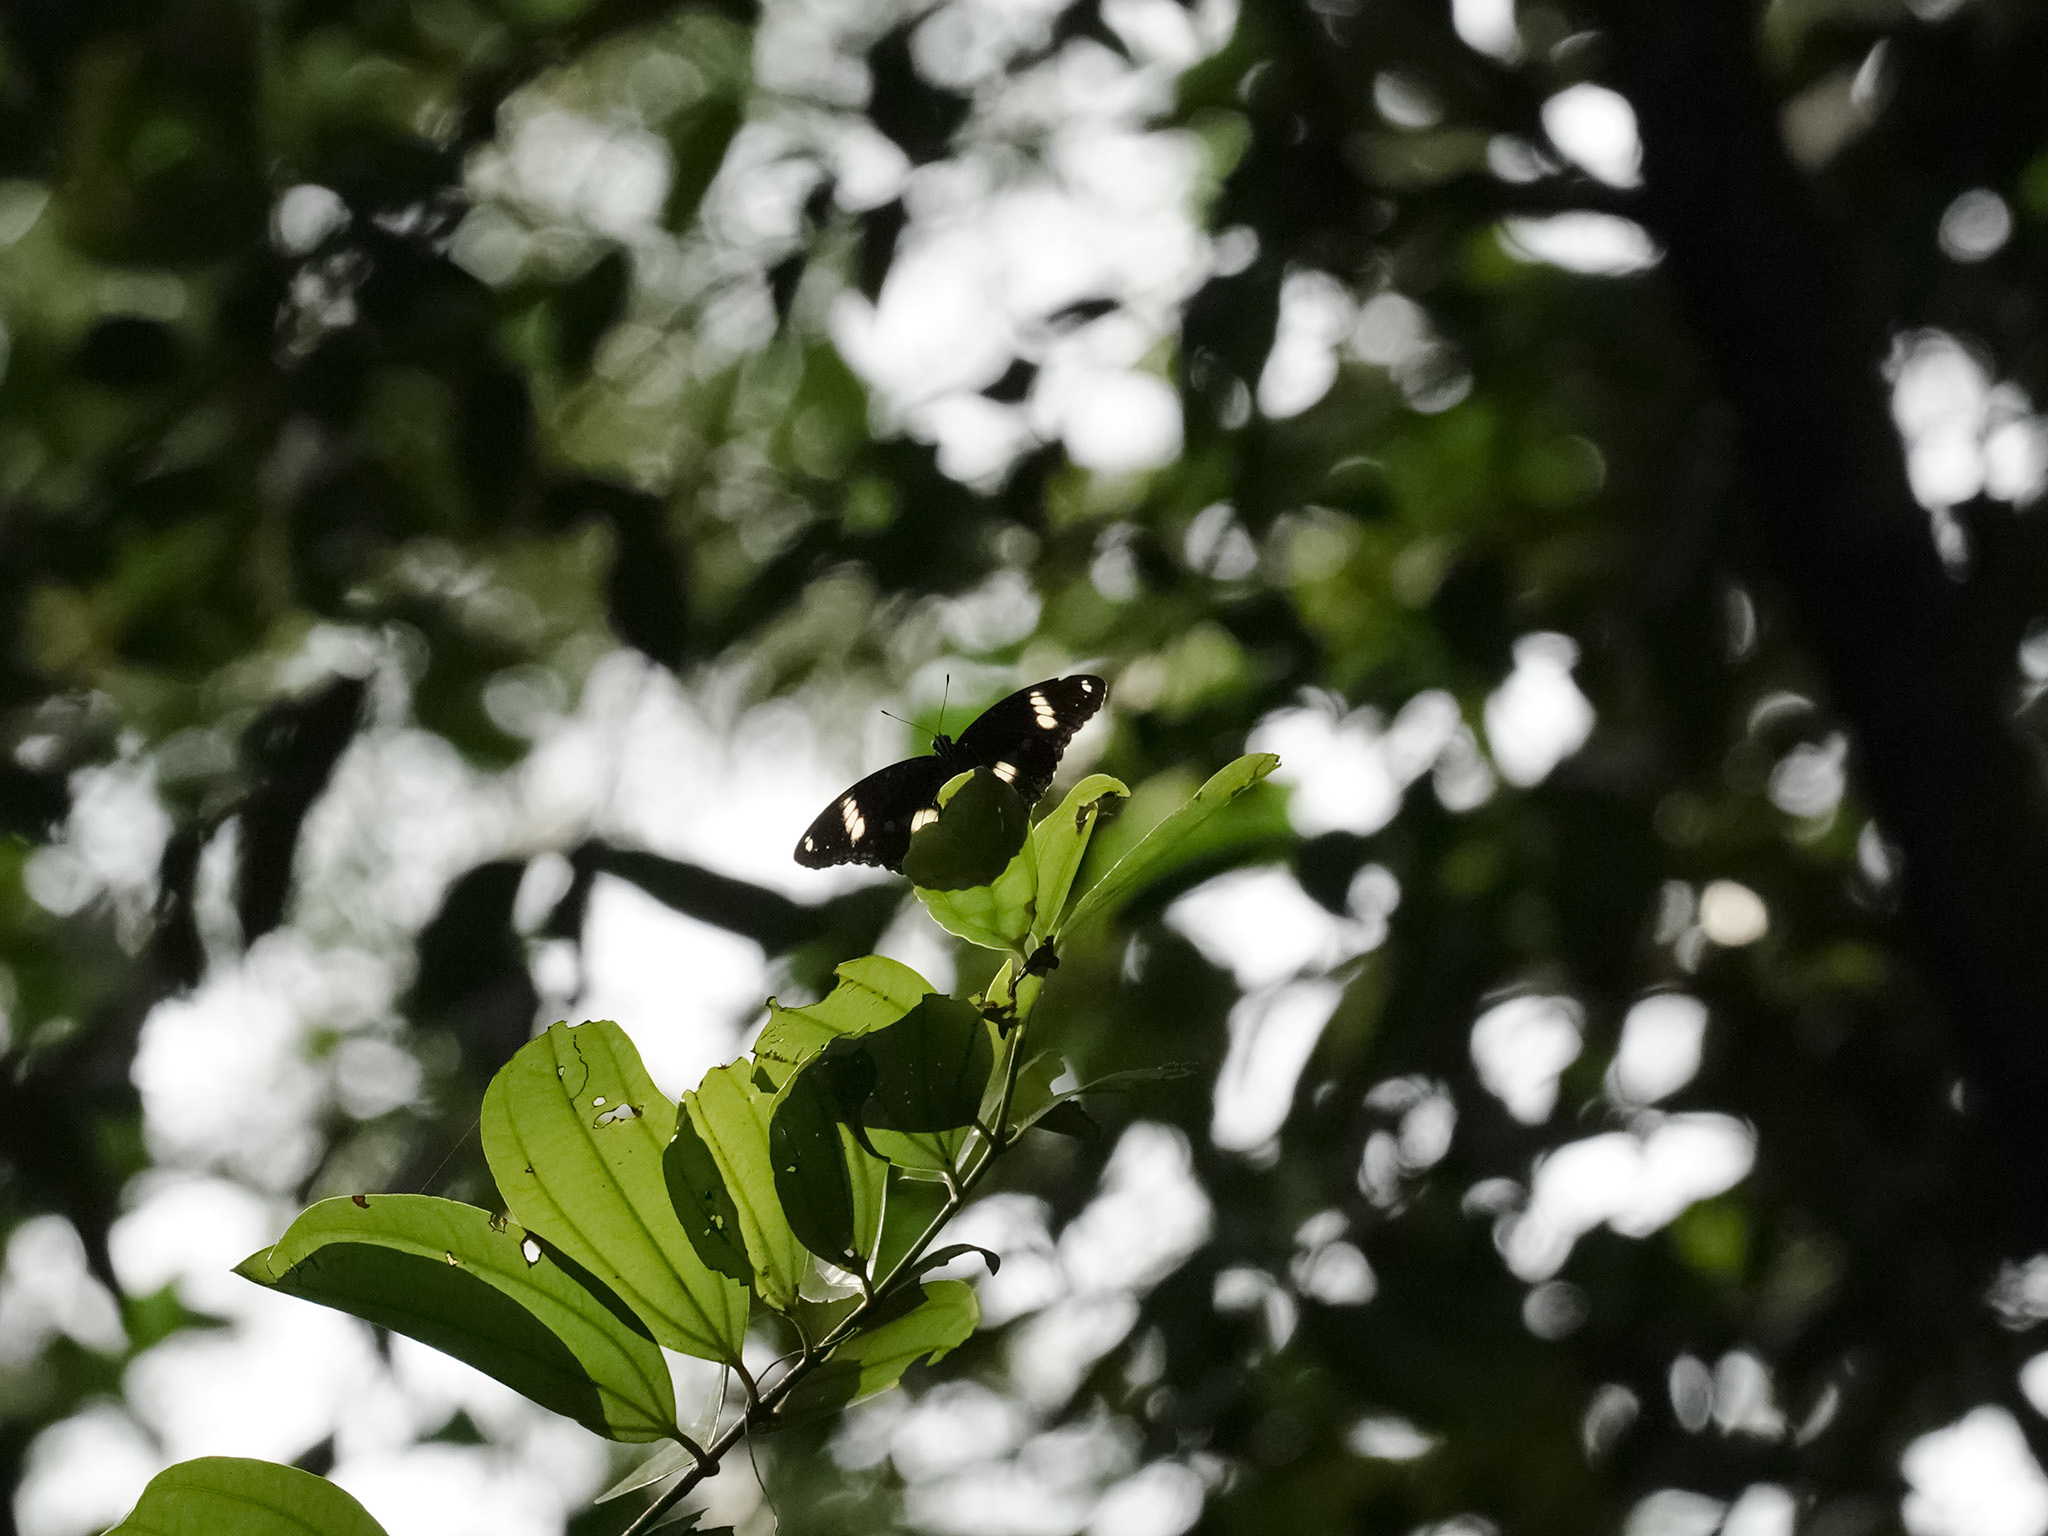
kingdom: Animalia
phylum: Arthropoda
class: Insecta
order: Lepidoptera
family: Nymphalidae
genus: Hypolimnas
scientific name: Hypolimnas bolina
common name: Great eggfly
